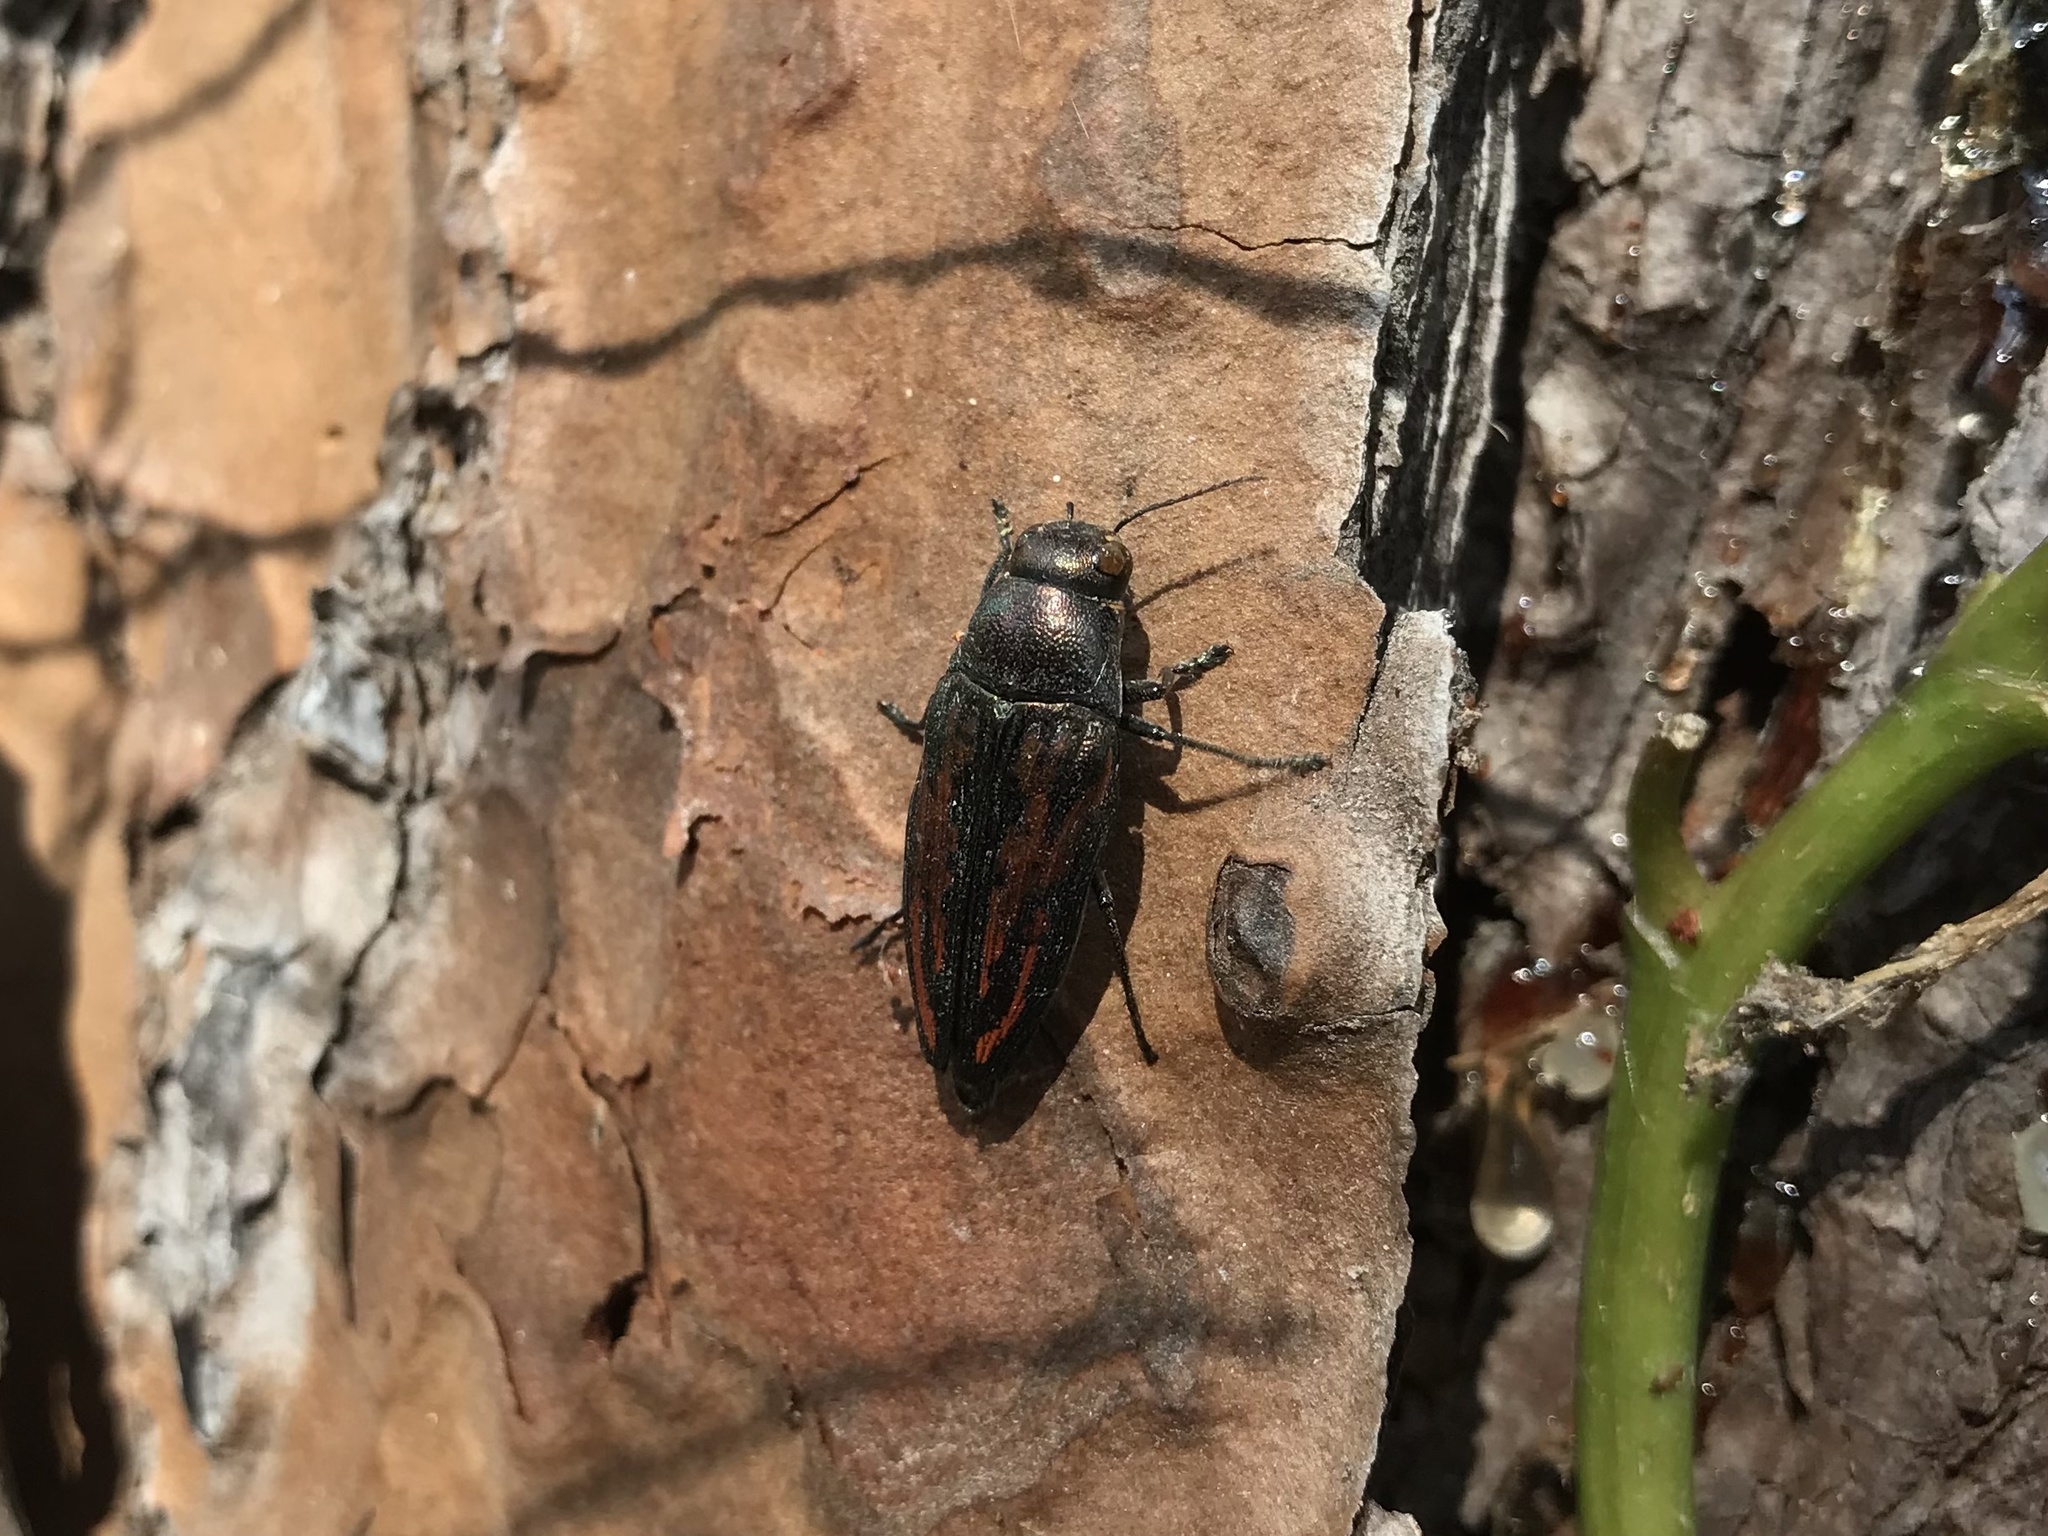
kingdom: Animalia
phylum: Arthropoda
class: Insecta
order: Coleoptera
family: Buprestidae
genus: Buprestis
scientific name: Buprestis lineata
